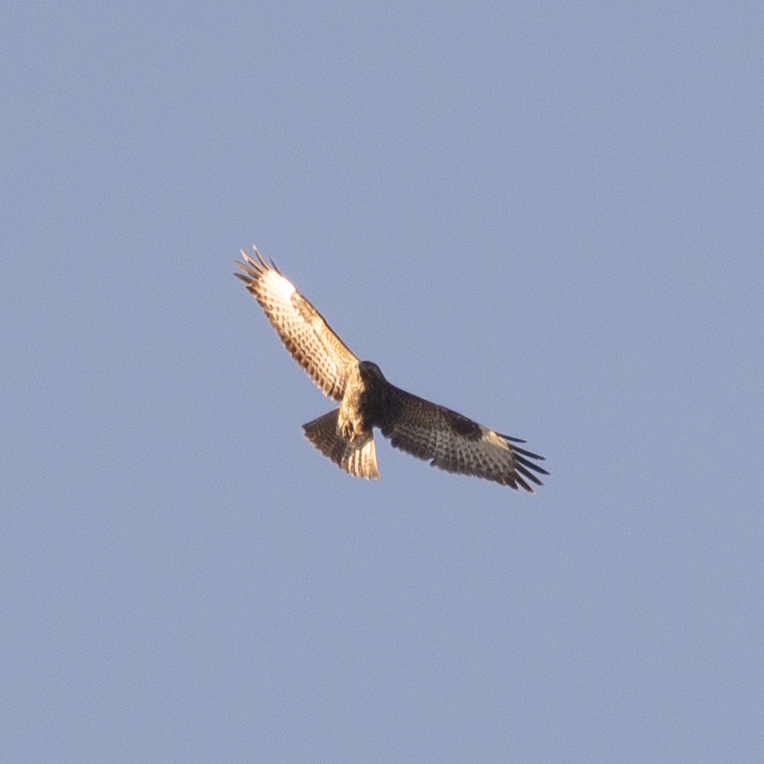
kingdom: Animalia
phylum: Chordata
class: Aves
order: Accipitriformes
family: Accipitridae
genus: Buteo
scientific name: Buteo buteo
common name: Common buzzard
